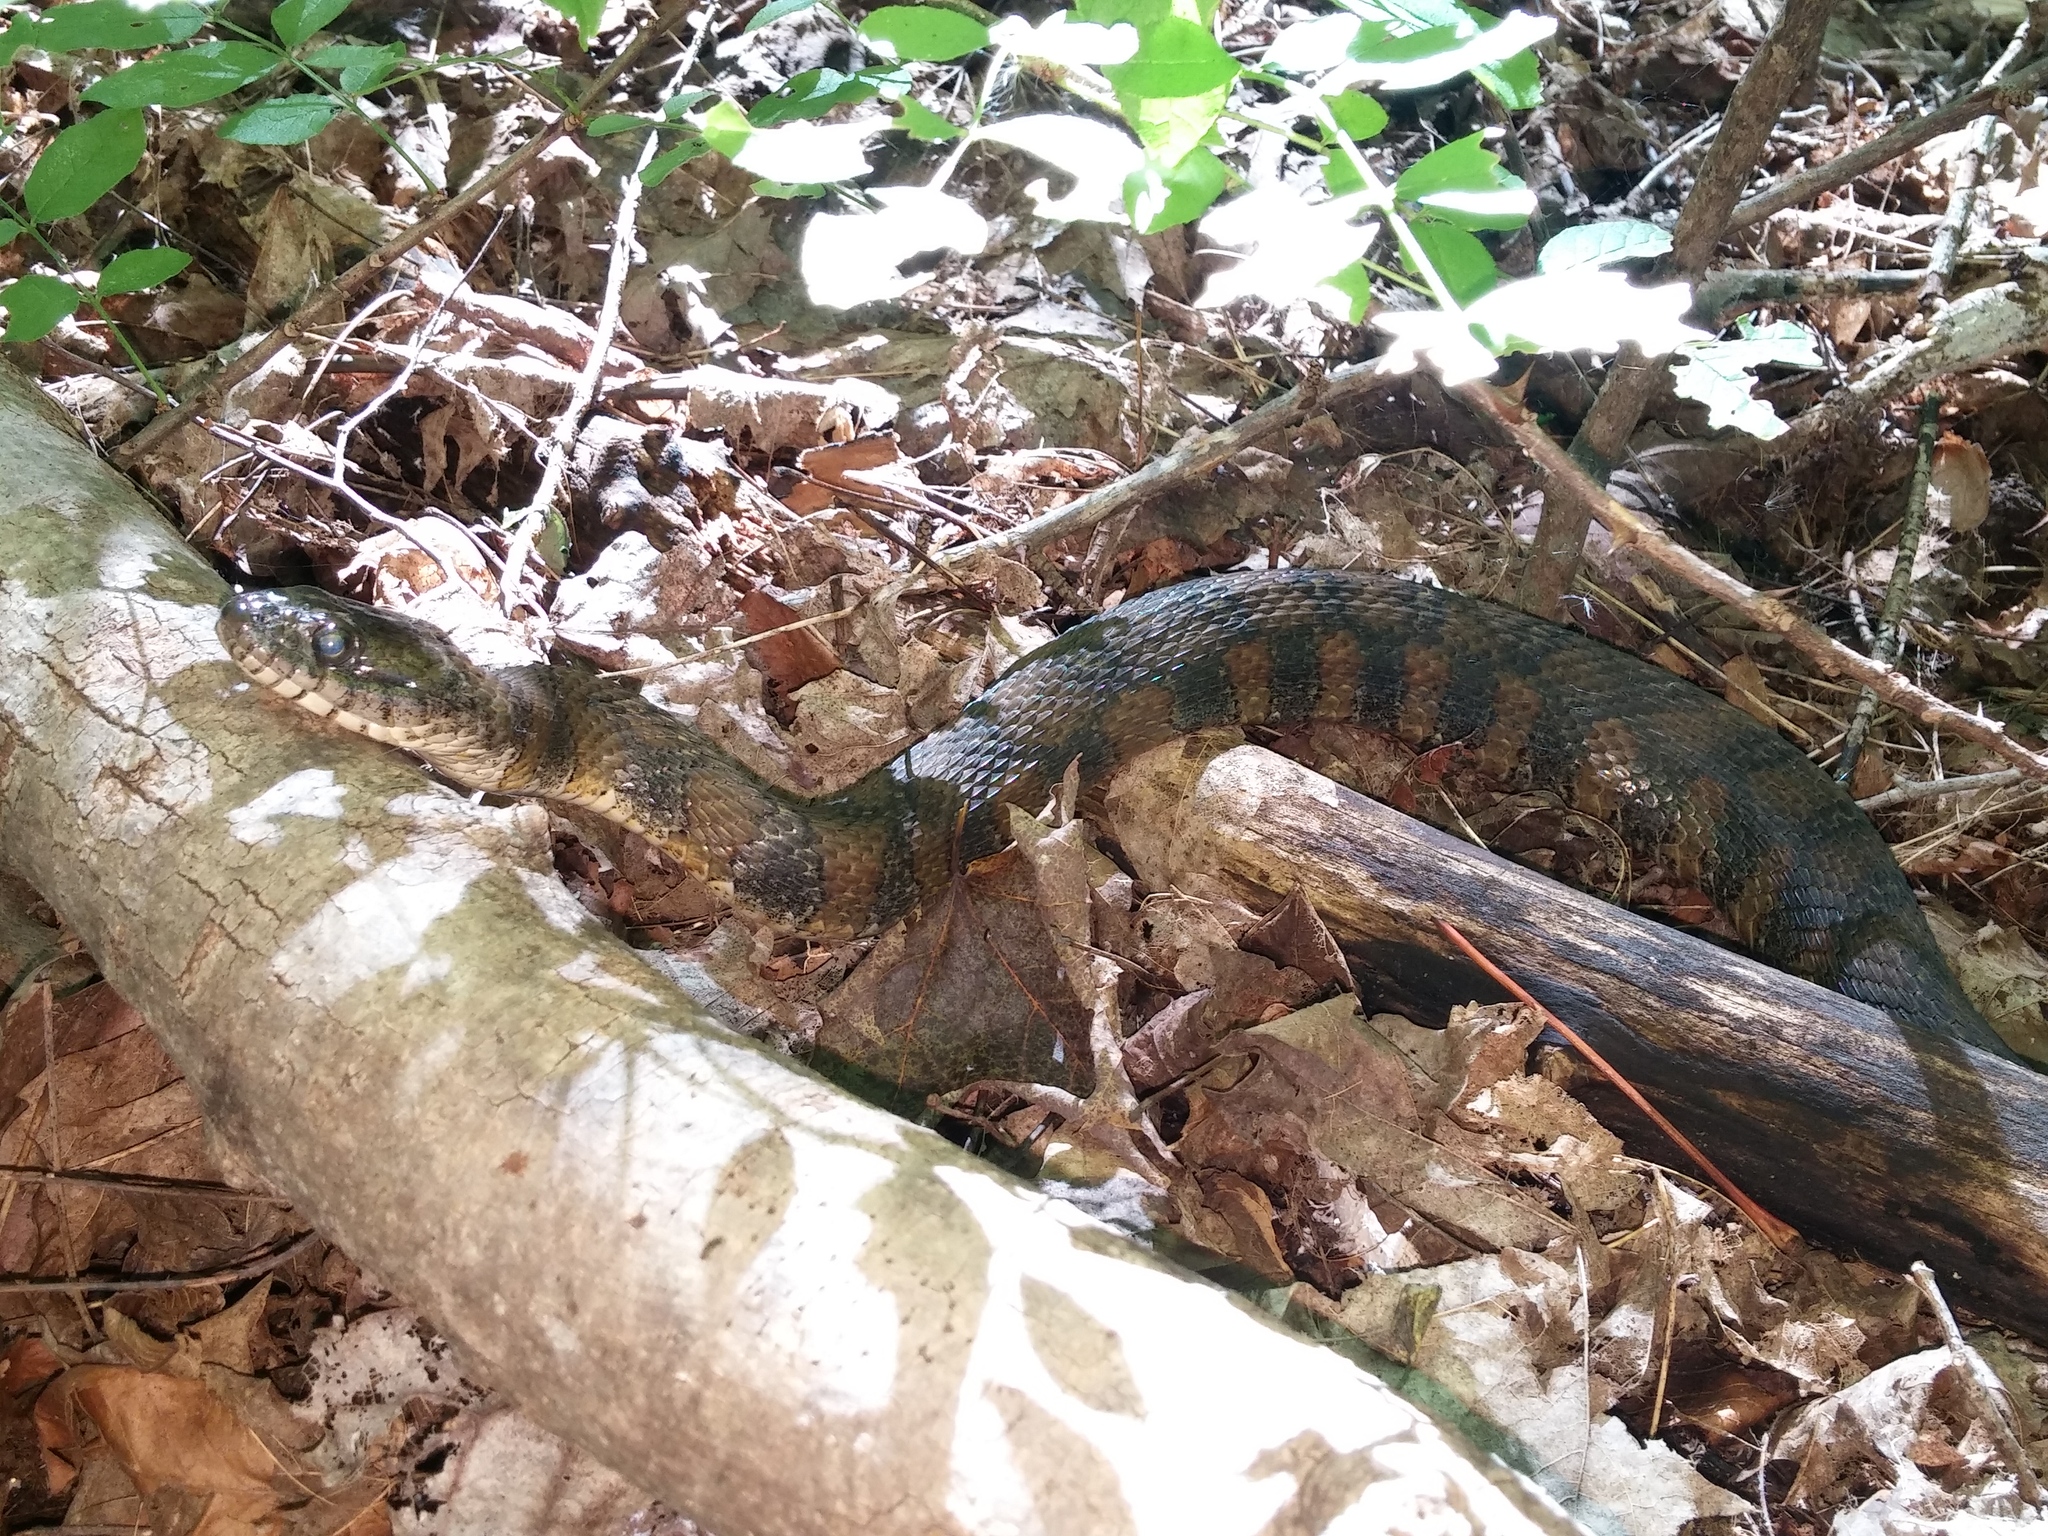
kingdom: Animalia
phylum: Chordata
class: Squamata
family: Colubridae
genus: Nerodia
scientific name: Nerodia sipedon
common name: Northern water snake
